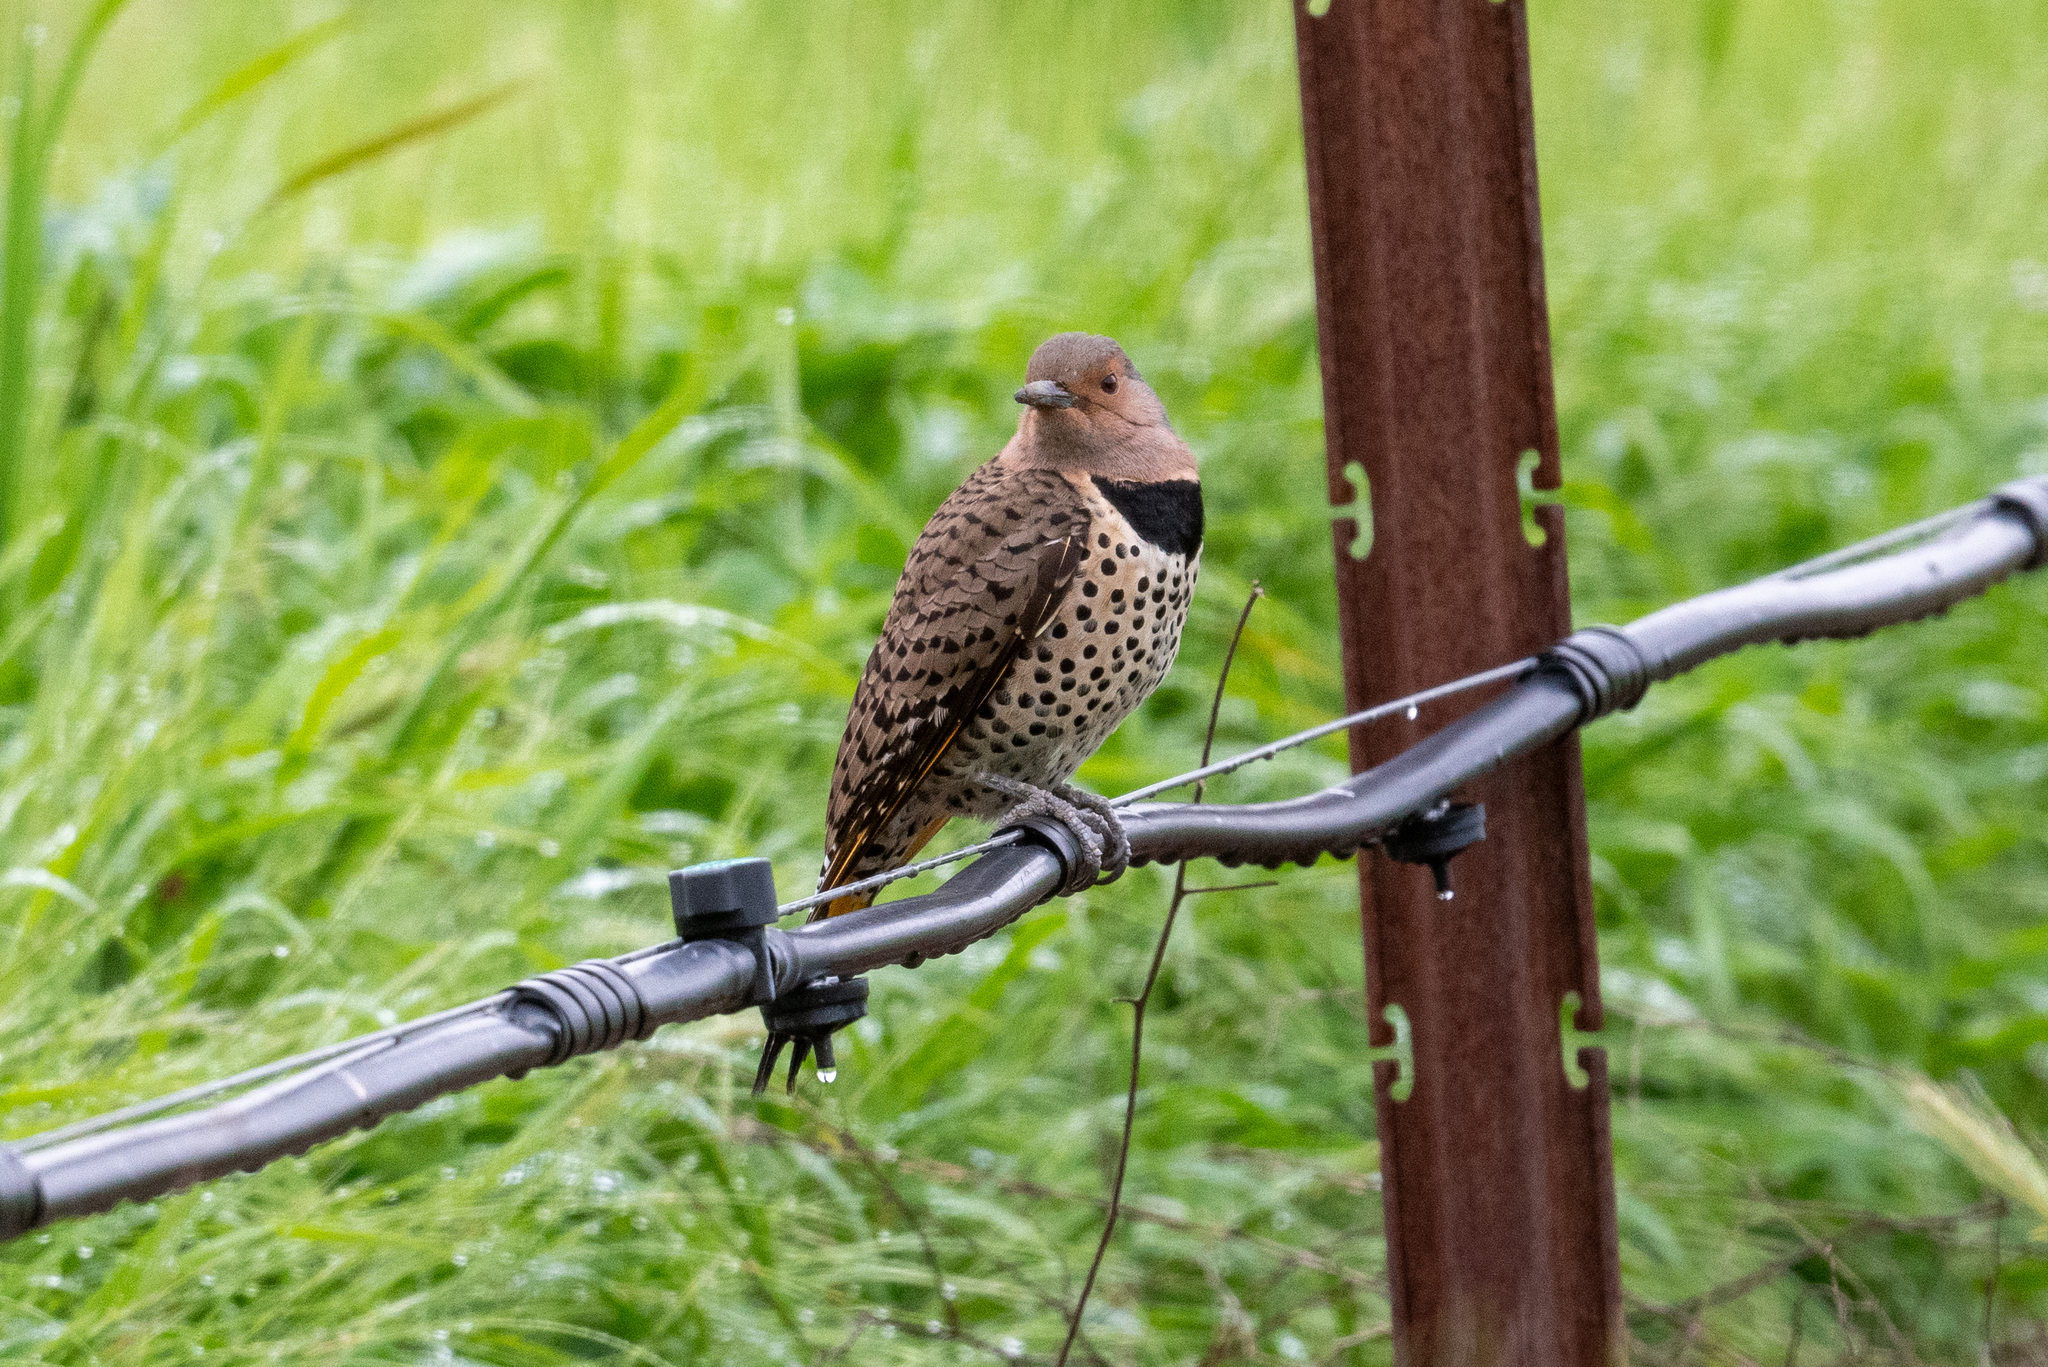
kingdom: Animalia
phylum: Chordata
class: Aves
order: Piciformes
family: Picidae
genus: Colaptes
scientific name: Colaptes auratus
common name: Northern flicker
